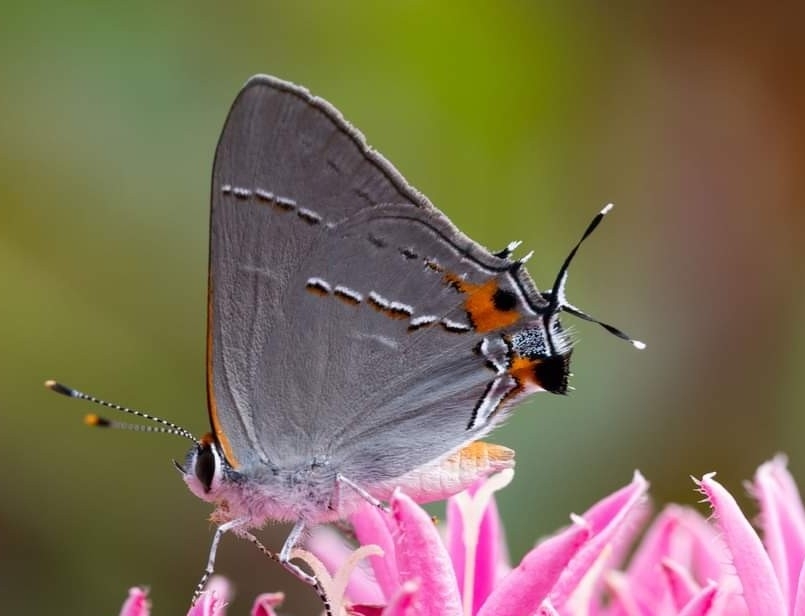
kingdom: Animalia
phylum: Arthropoda
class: Insecta
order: Lepidoptera
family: Lycaenidae
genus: Strymon
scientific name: Strymon melinus
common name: Gray hairstreak
